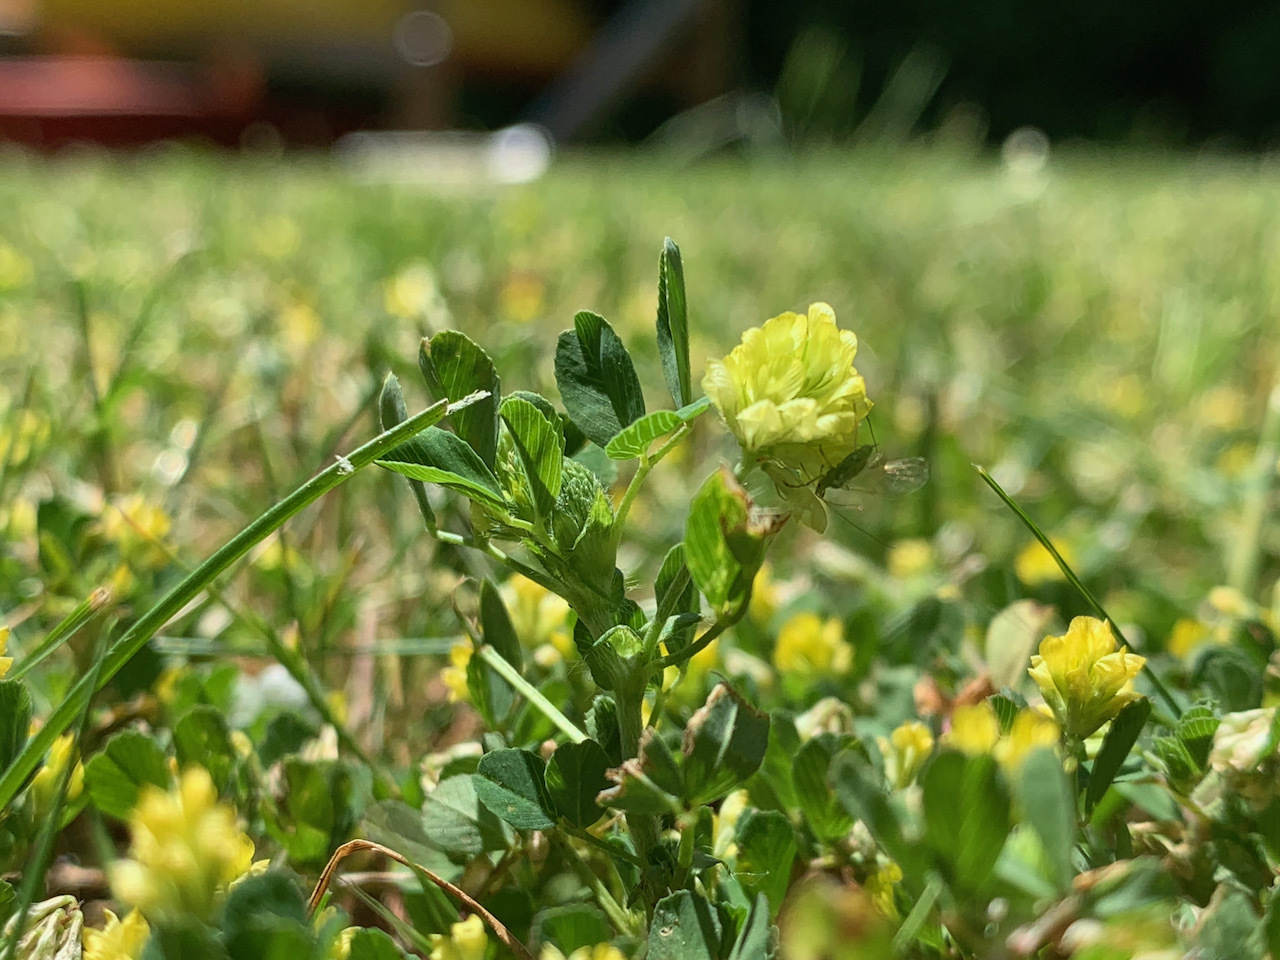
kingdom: Plantae
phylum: Tracheophyta
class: Magnoliopsida
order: Fabales
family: Fabaceae
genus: Trifolium
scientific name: Trifolium campestre
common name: Field clover
